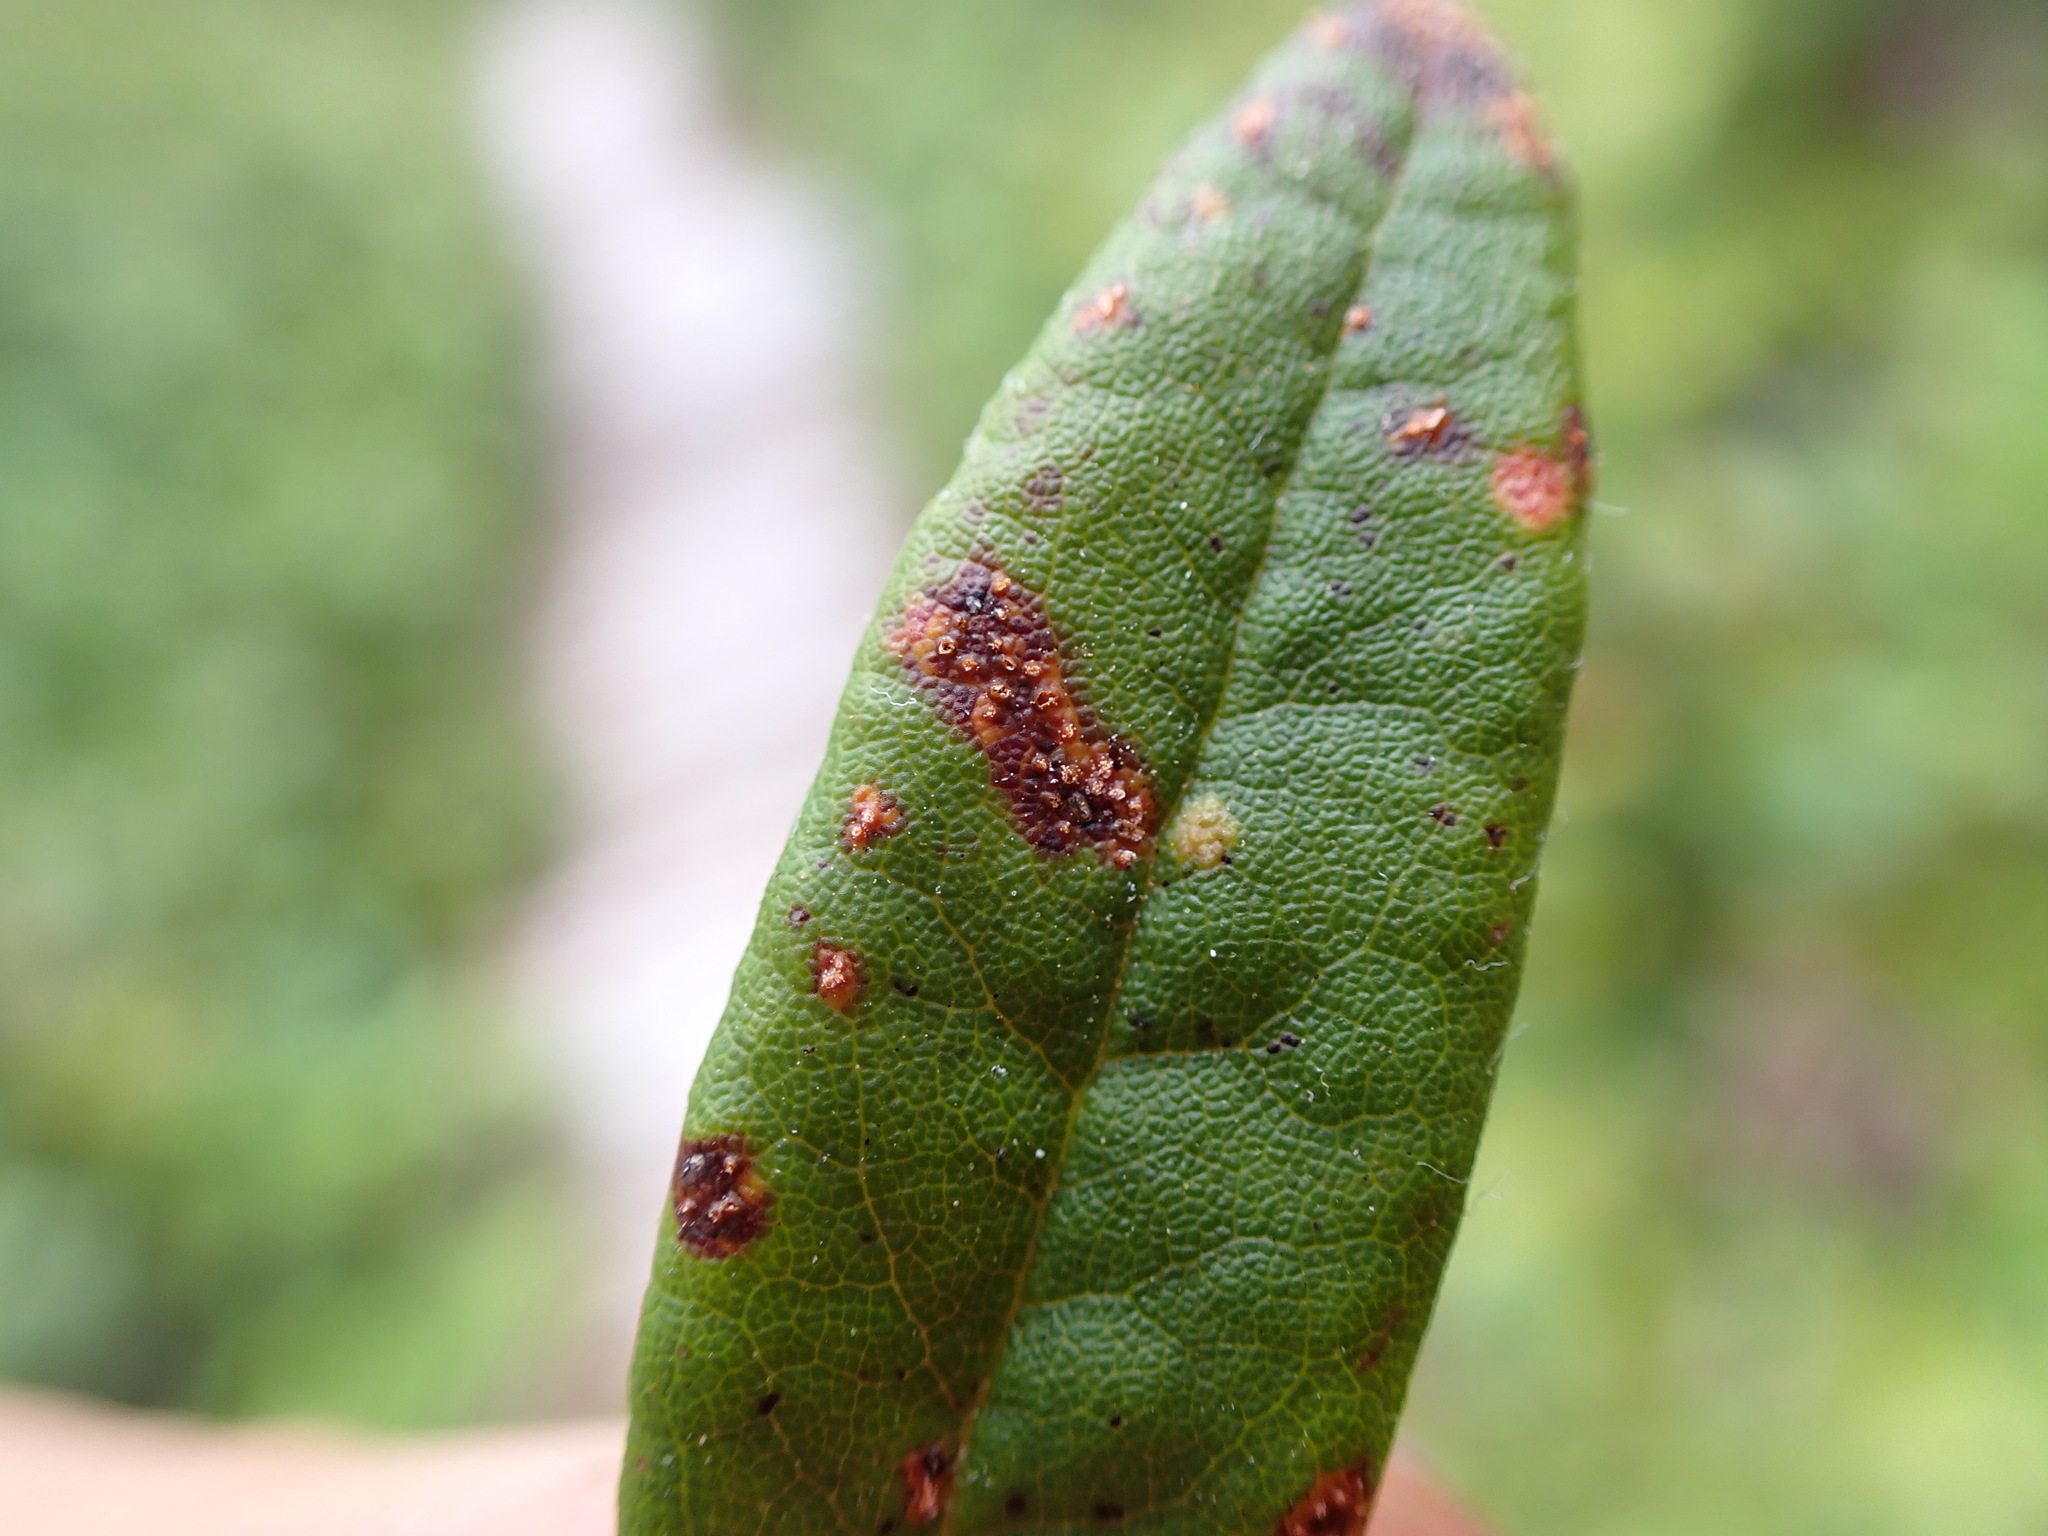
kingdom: Fungi
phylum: Basidiomycota
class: Pucciniomycetes
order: Pucciniales
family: Coleosporiaceae
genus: Chrysomyxa
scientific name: Chrysomyxa ledicola
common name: Spruce-labrador tea needle rust
